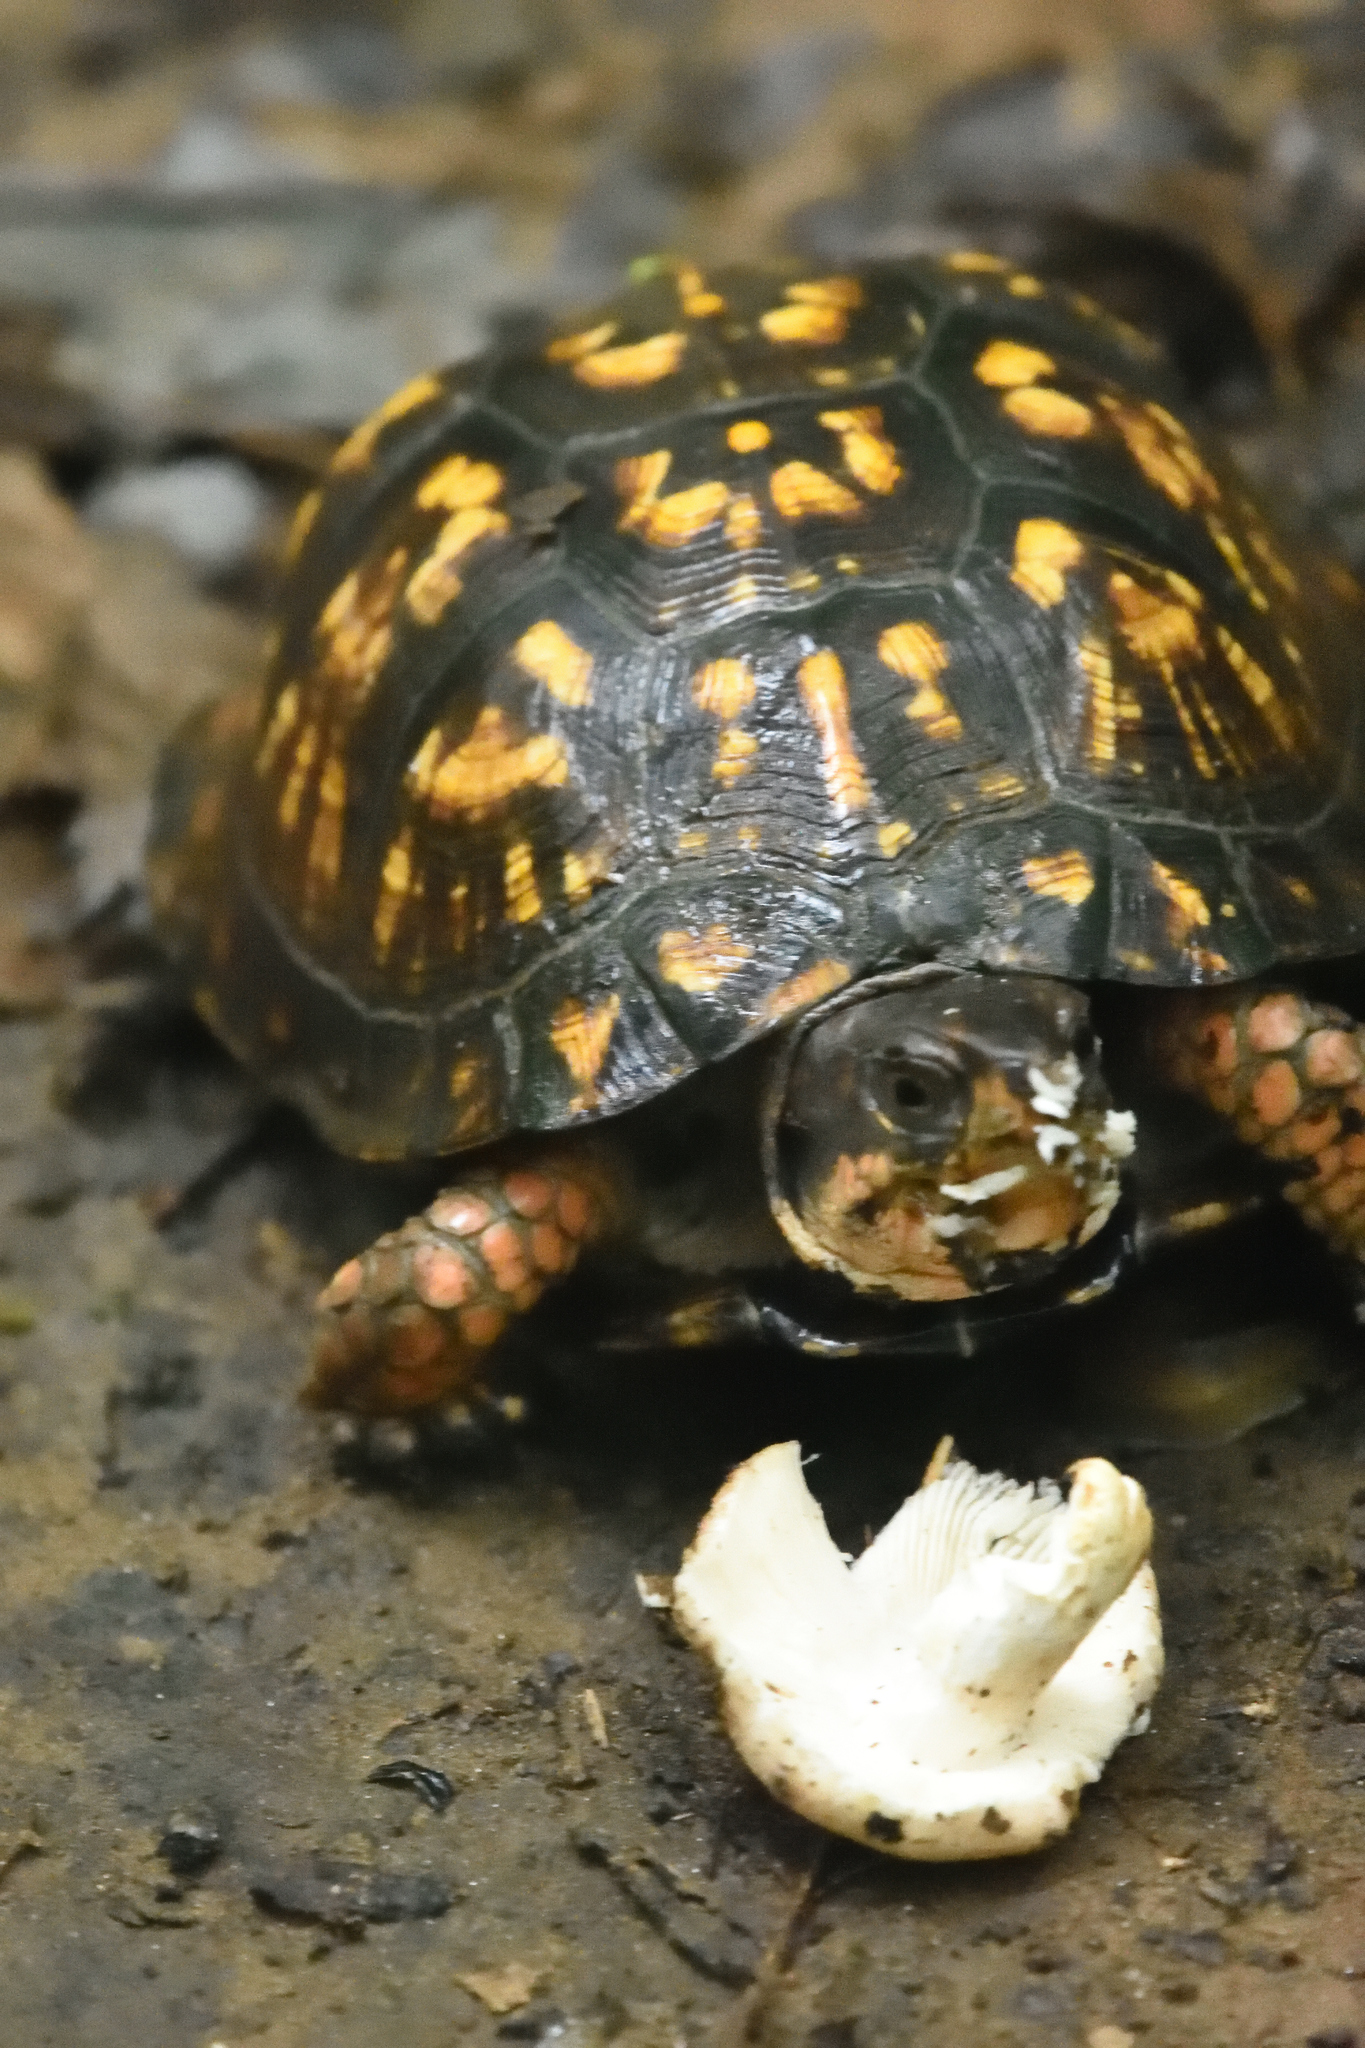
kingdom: Animalia
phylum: Chordata
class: Testudines
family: Emydidae
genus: Terrapene
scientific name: Terrapene carolina
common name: Common box turtle
